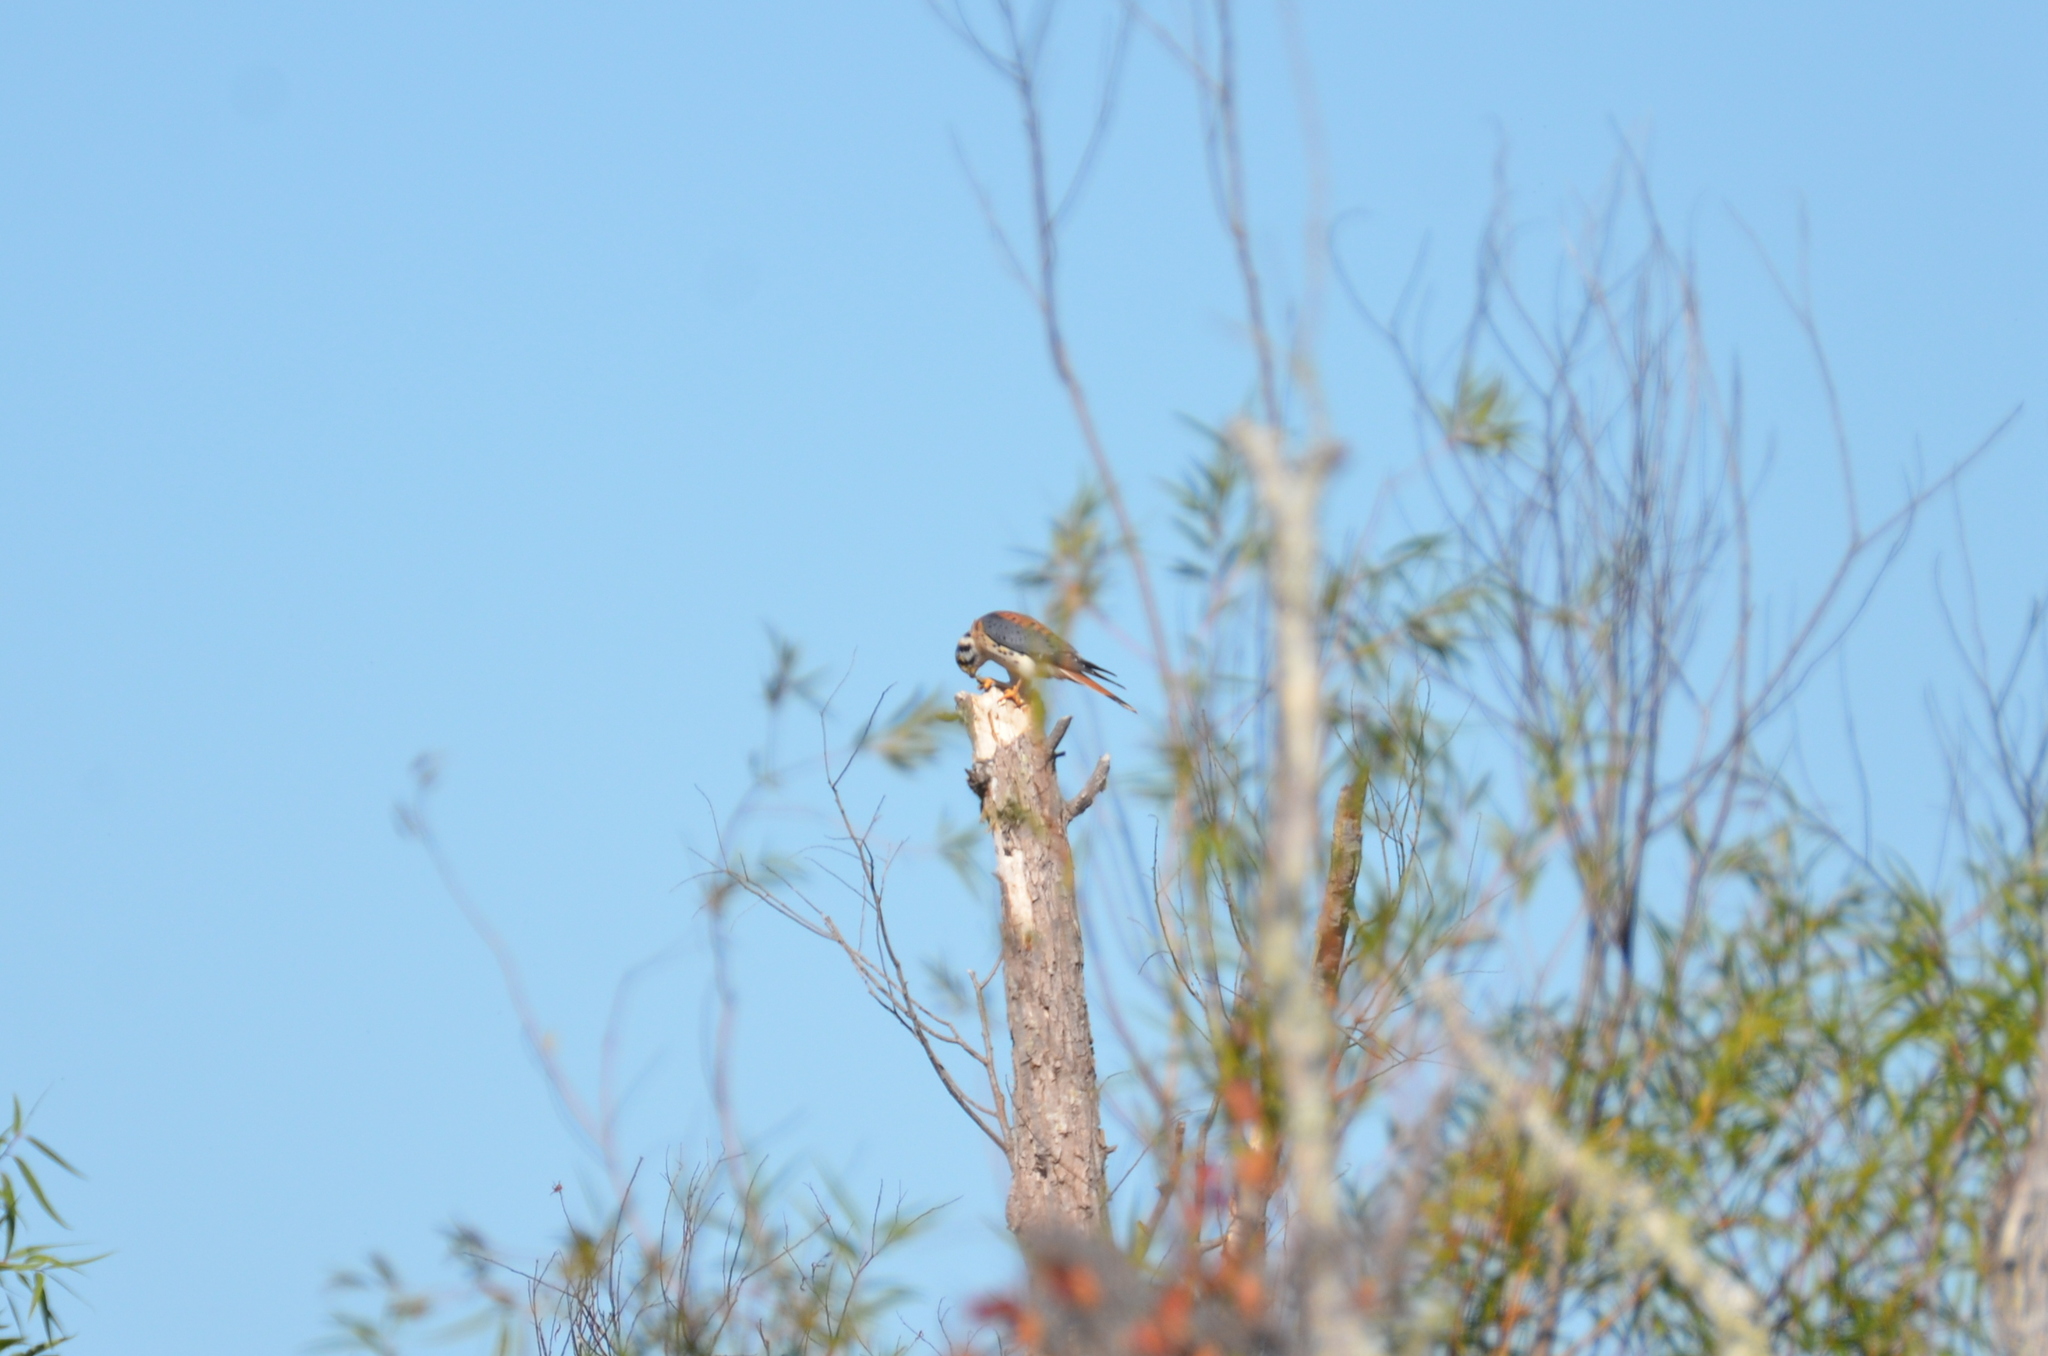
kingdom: Animalia
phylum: Chordata
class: Aves
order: Falconiformes
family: Falconidae
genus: Falco
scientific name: Falco sparverius
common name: American kestrel
